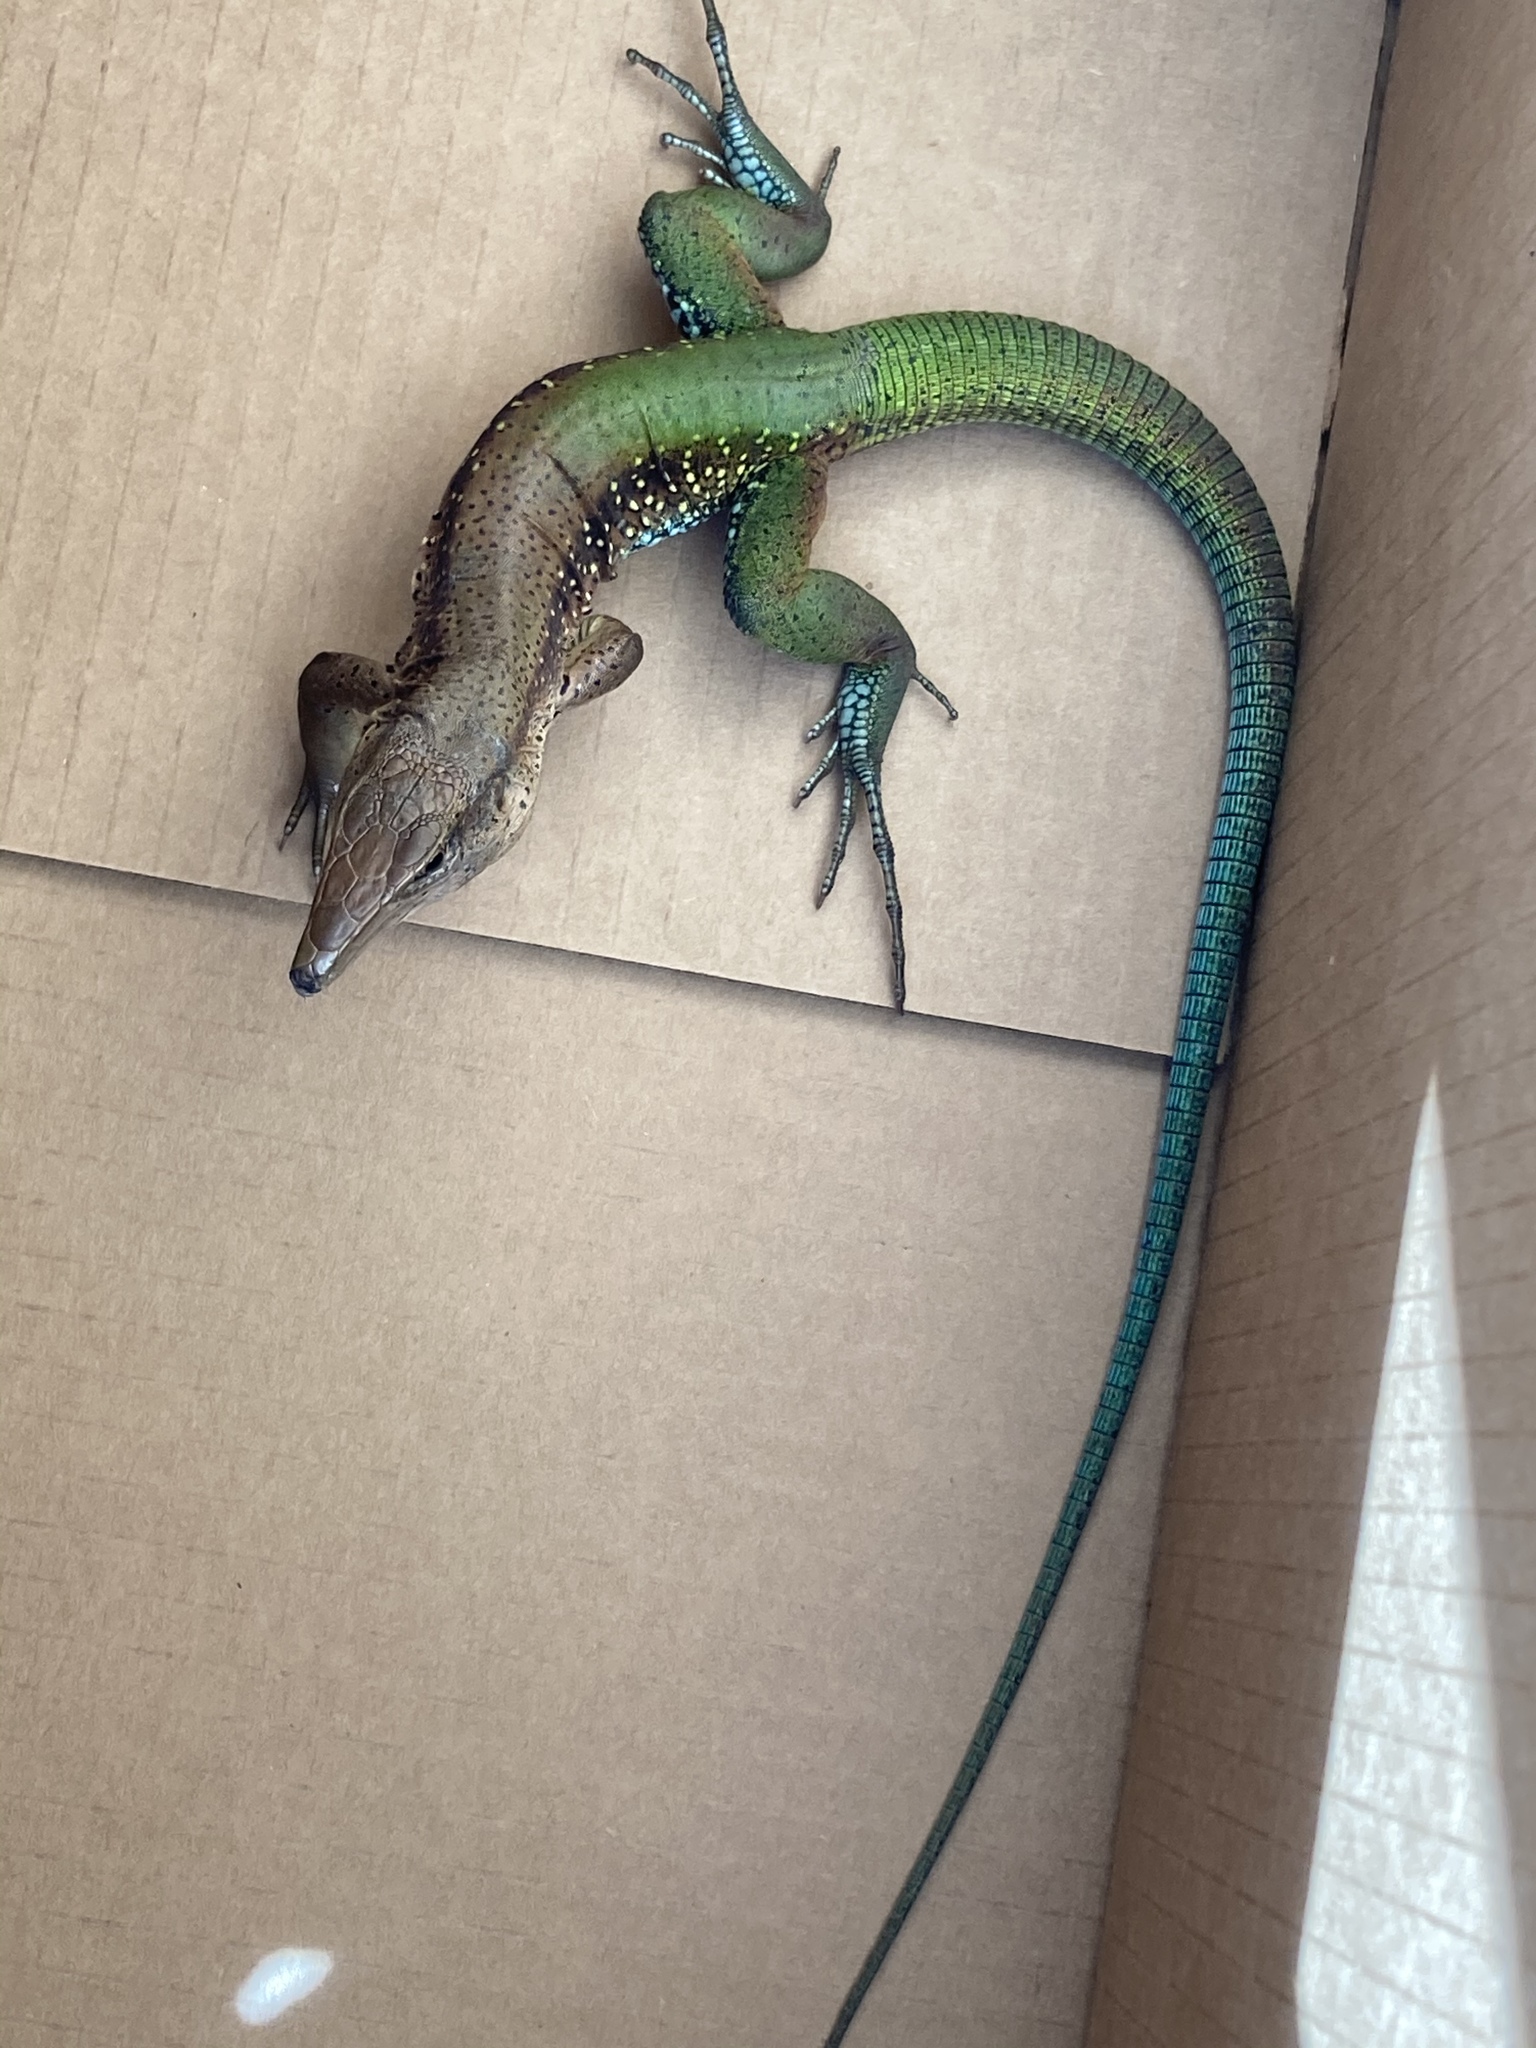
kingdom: Animalia
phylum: Chordata
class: Squamata
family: Teiidae
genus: Ameiva
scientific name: Ameiva ameiva
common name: Giant ameiva
